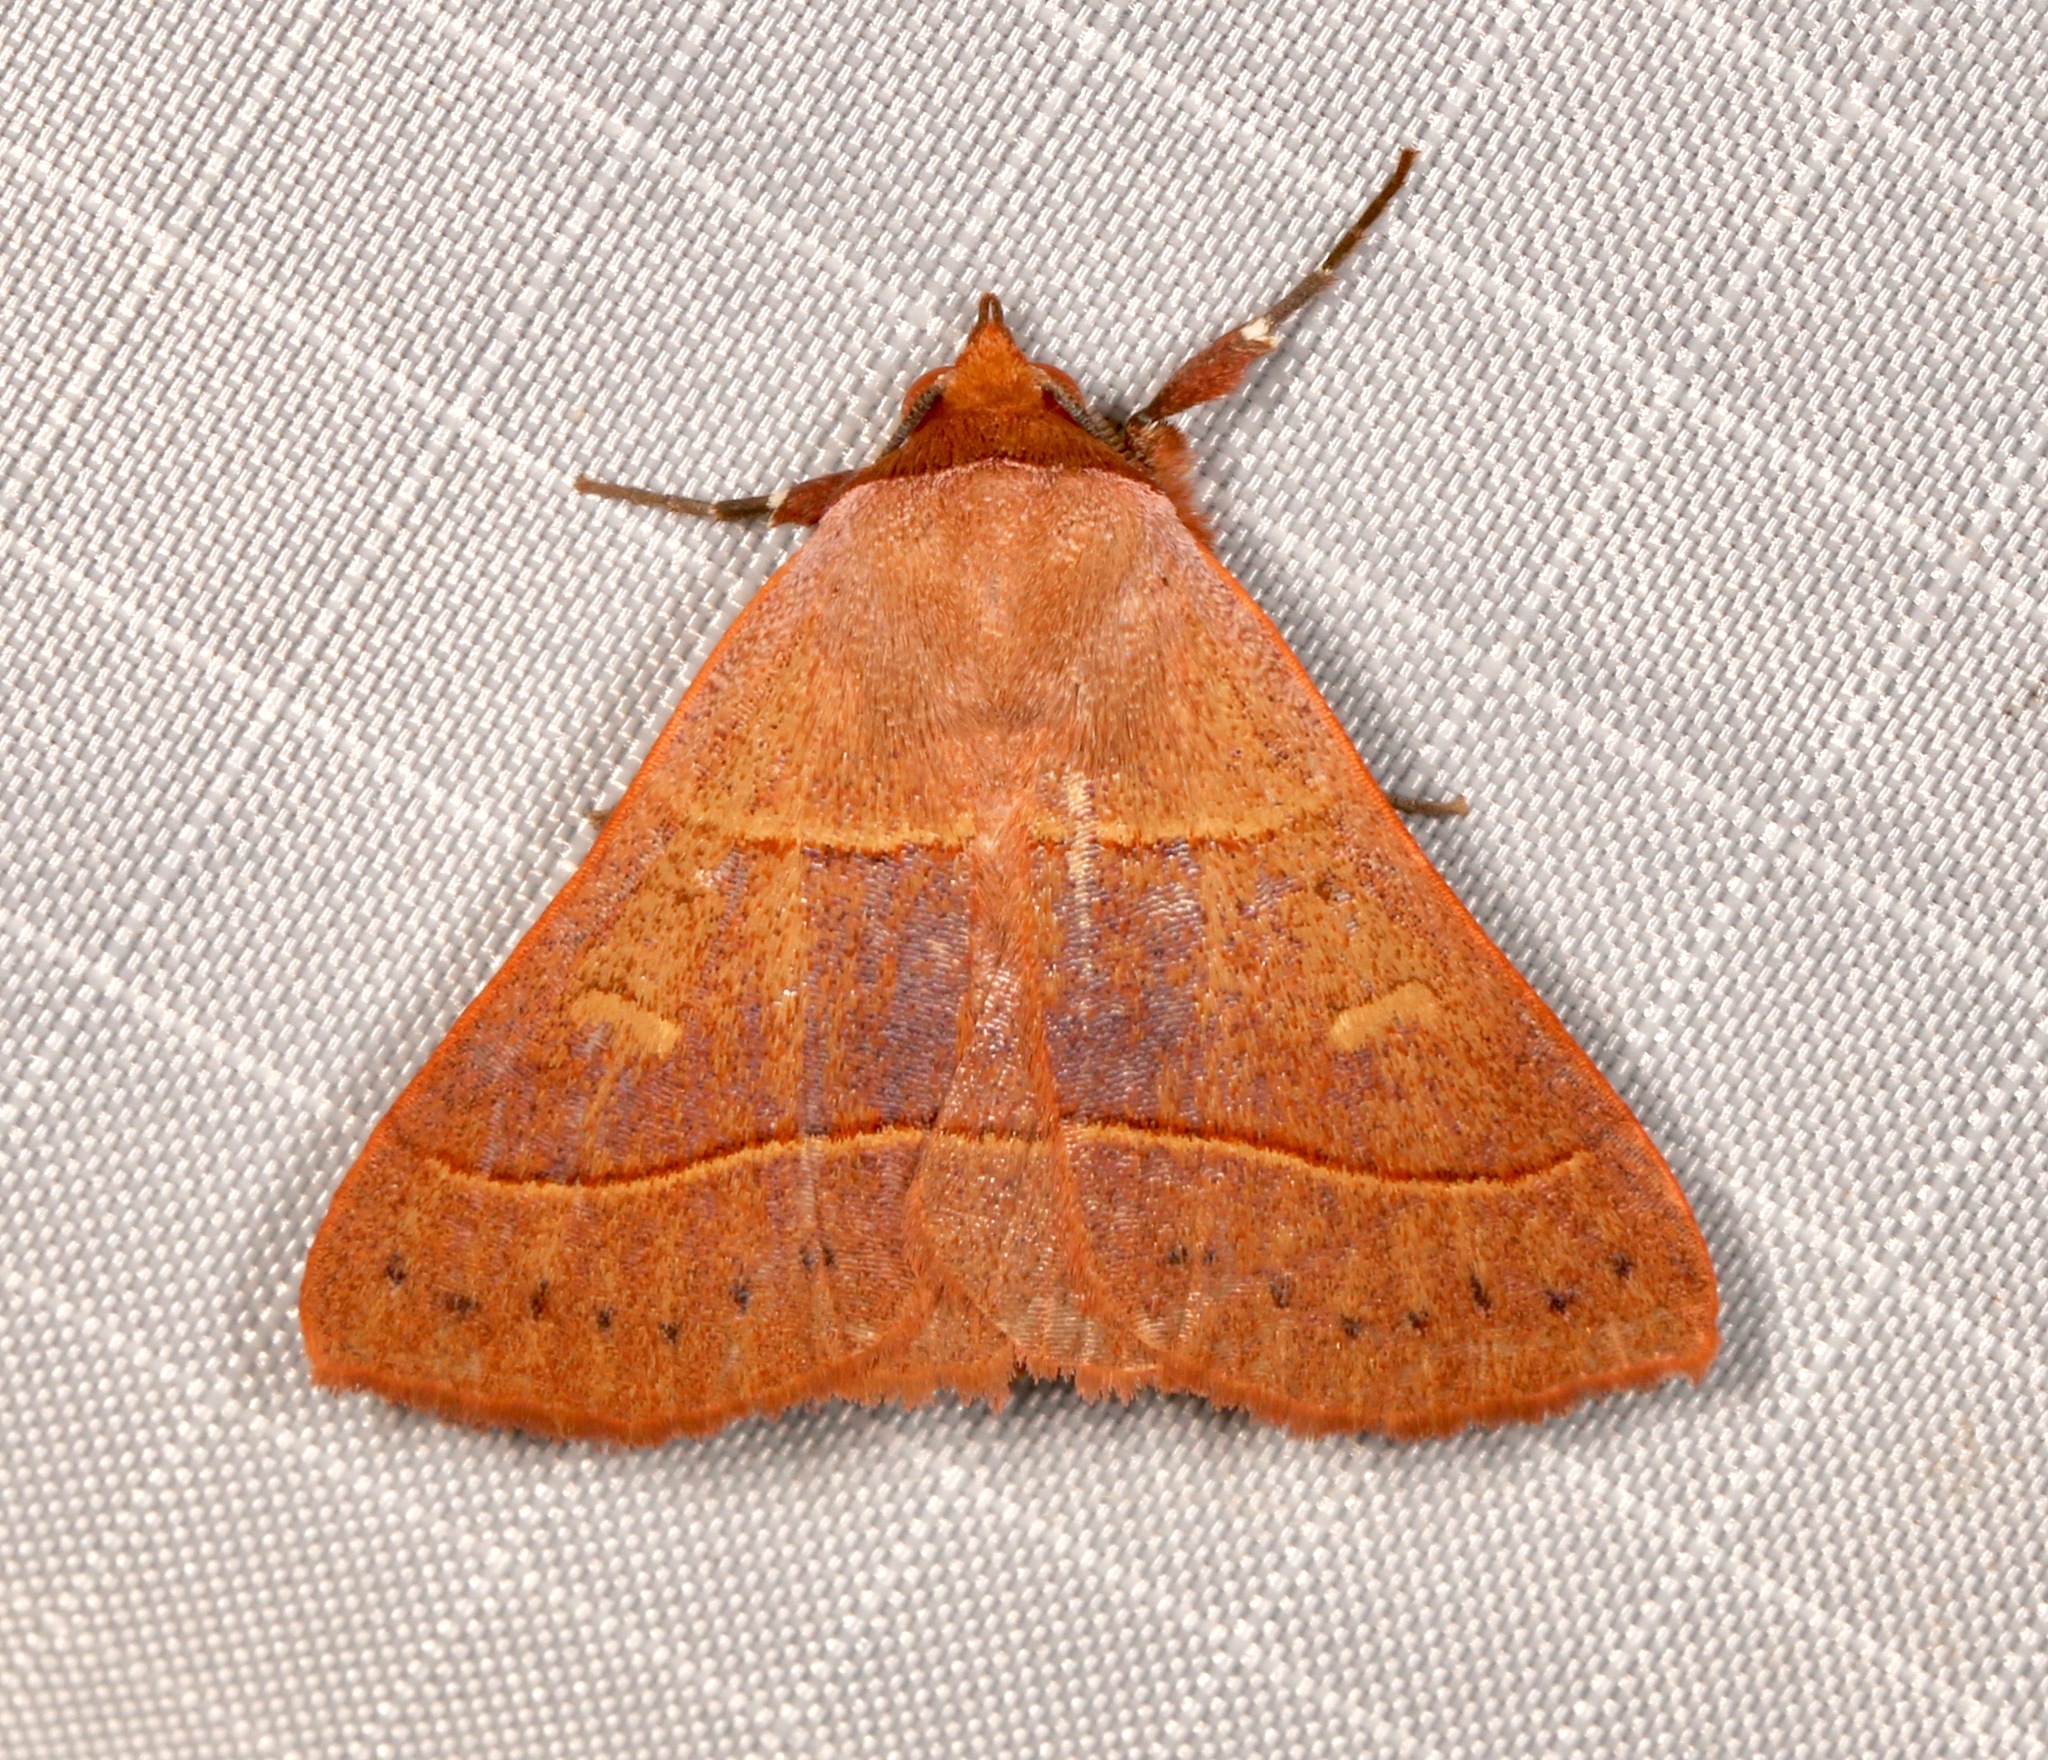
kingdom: Animalia
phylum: Arthropoda
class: Insecta
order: Lepidoptera
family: Erebidae
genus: Panopoda
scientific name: Panopoda rufimargo
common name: Red-lined panopoda moth
